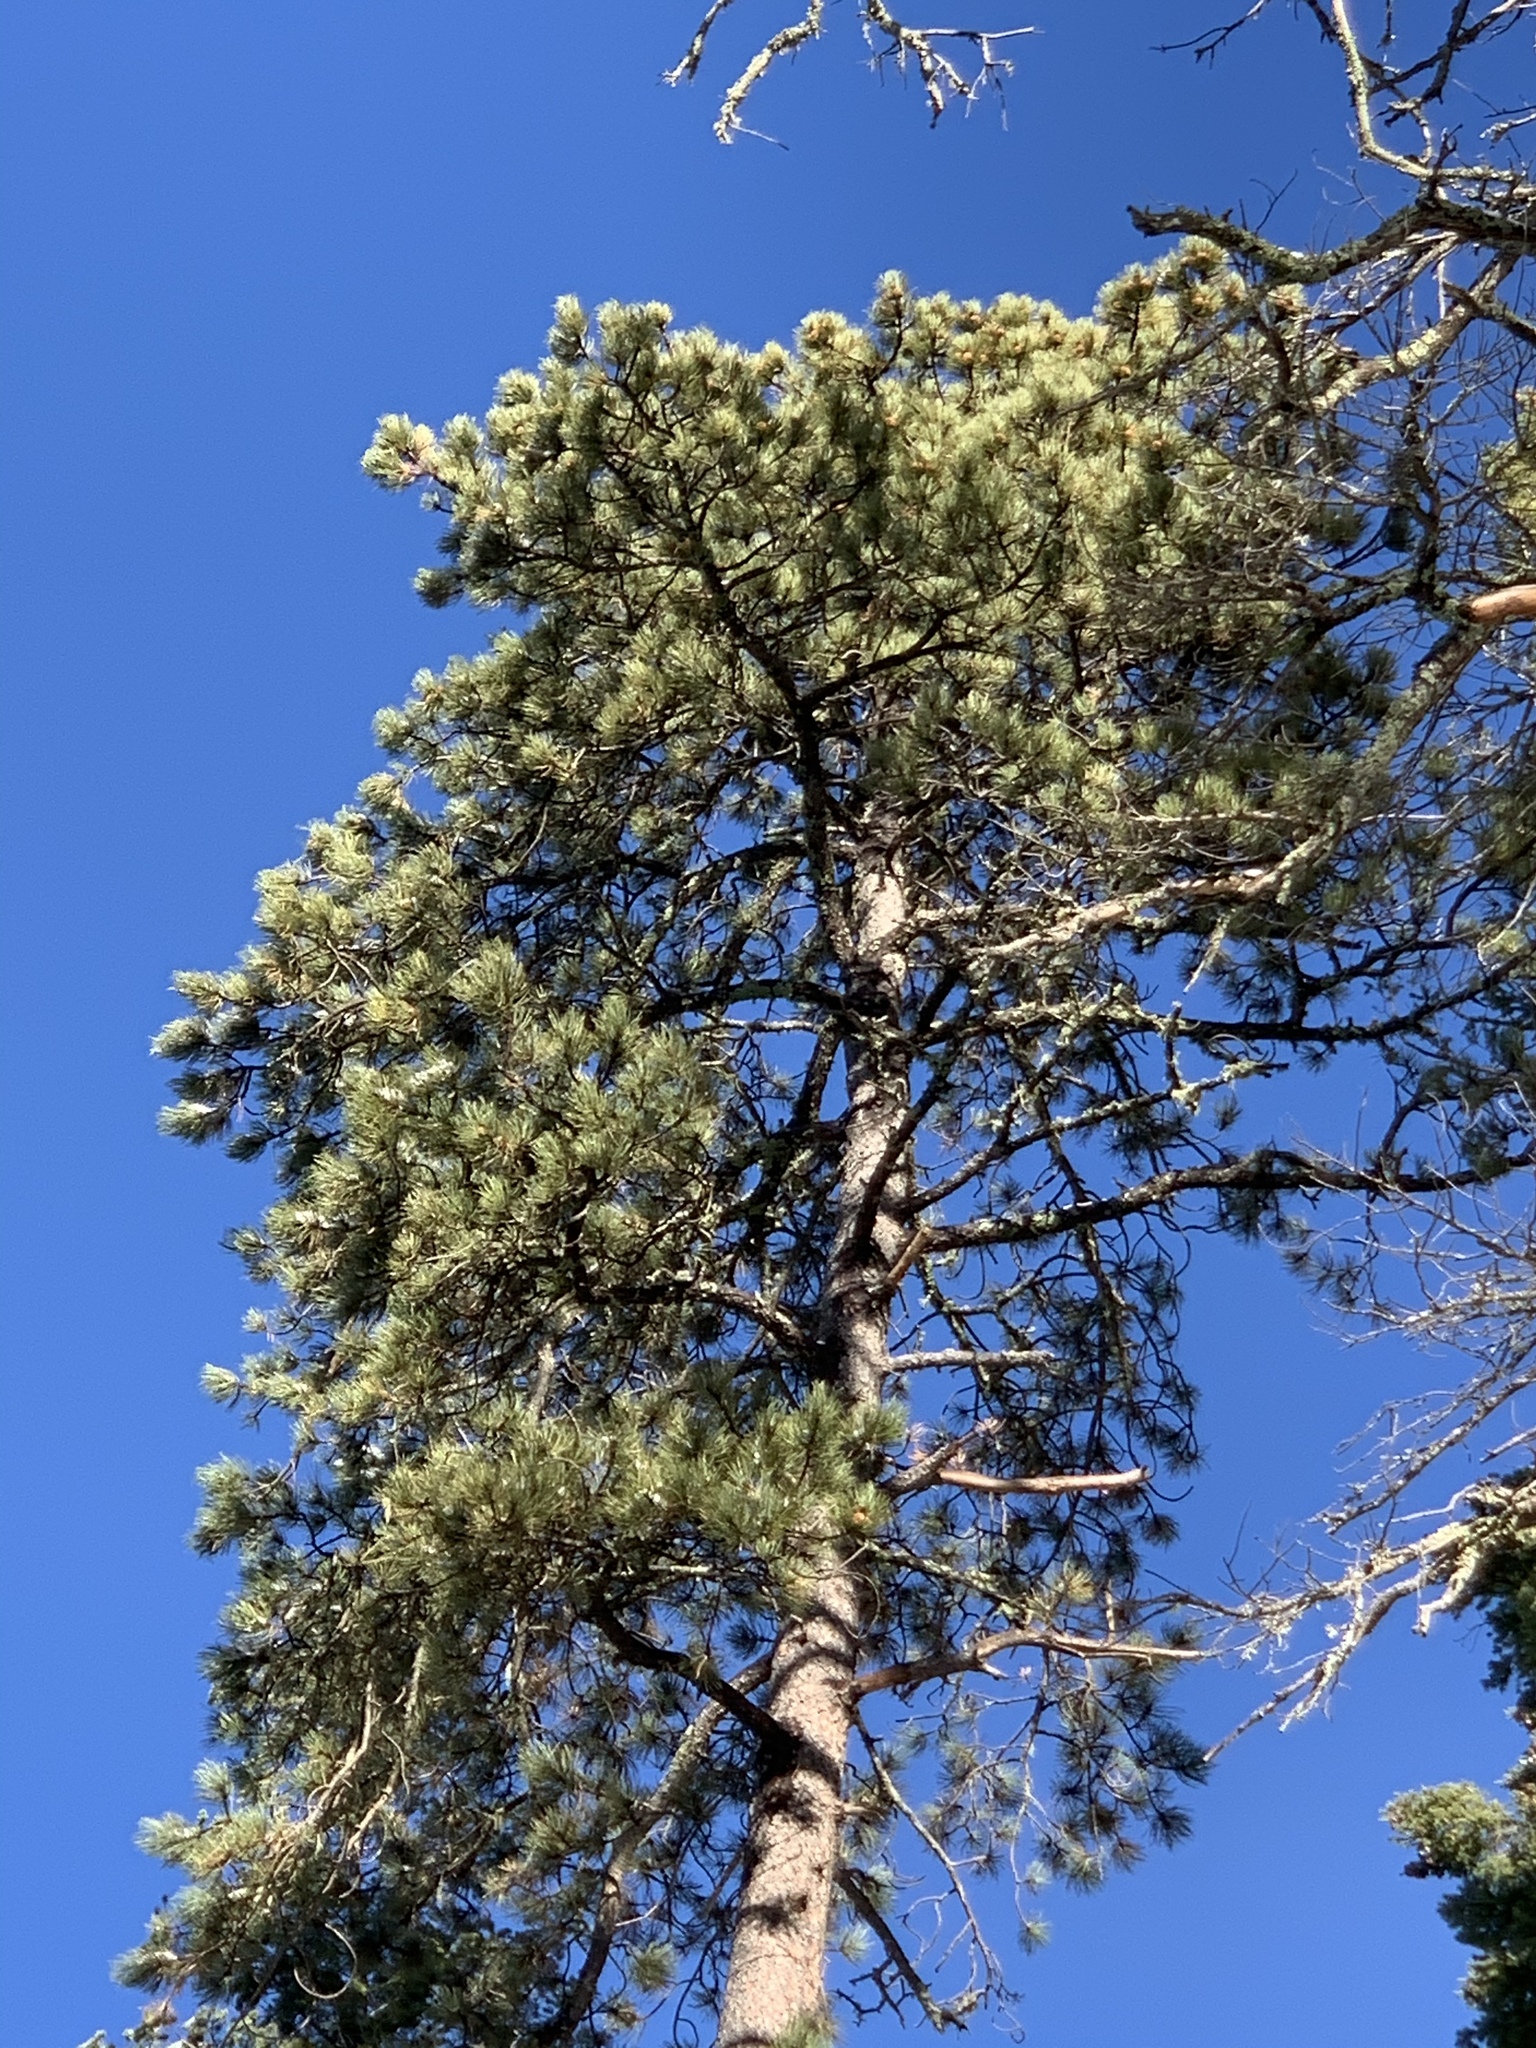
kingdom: Plantae
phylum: Tracheophyta
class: Pinopsida
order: Pinales
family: Pinaceae
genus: Pinus
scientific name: Pinus ponderosa
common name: Western yellow-pine
